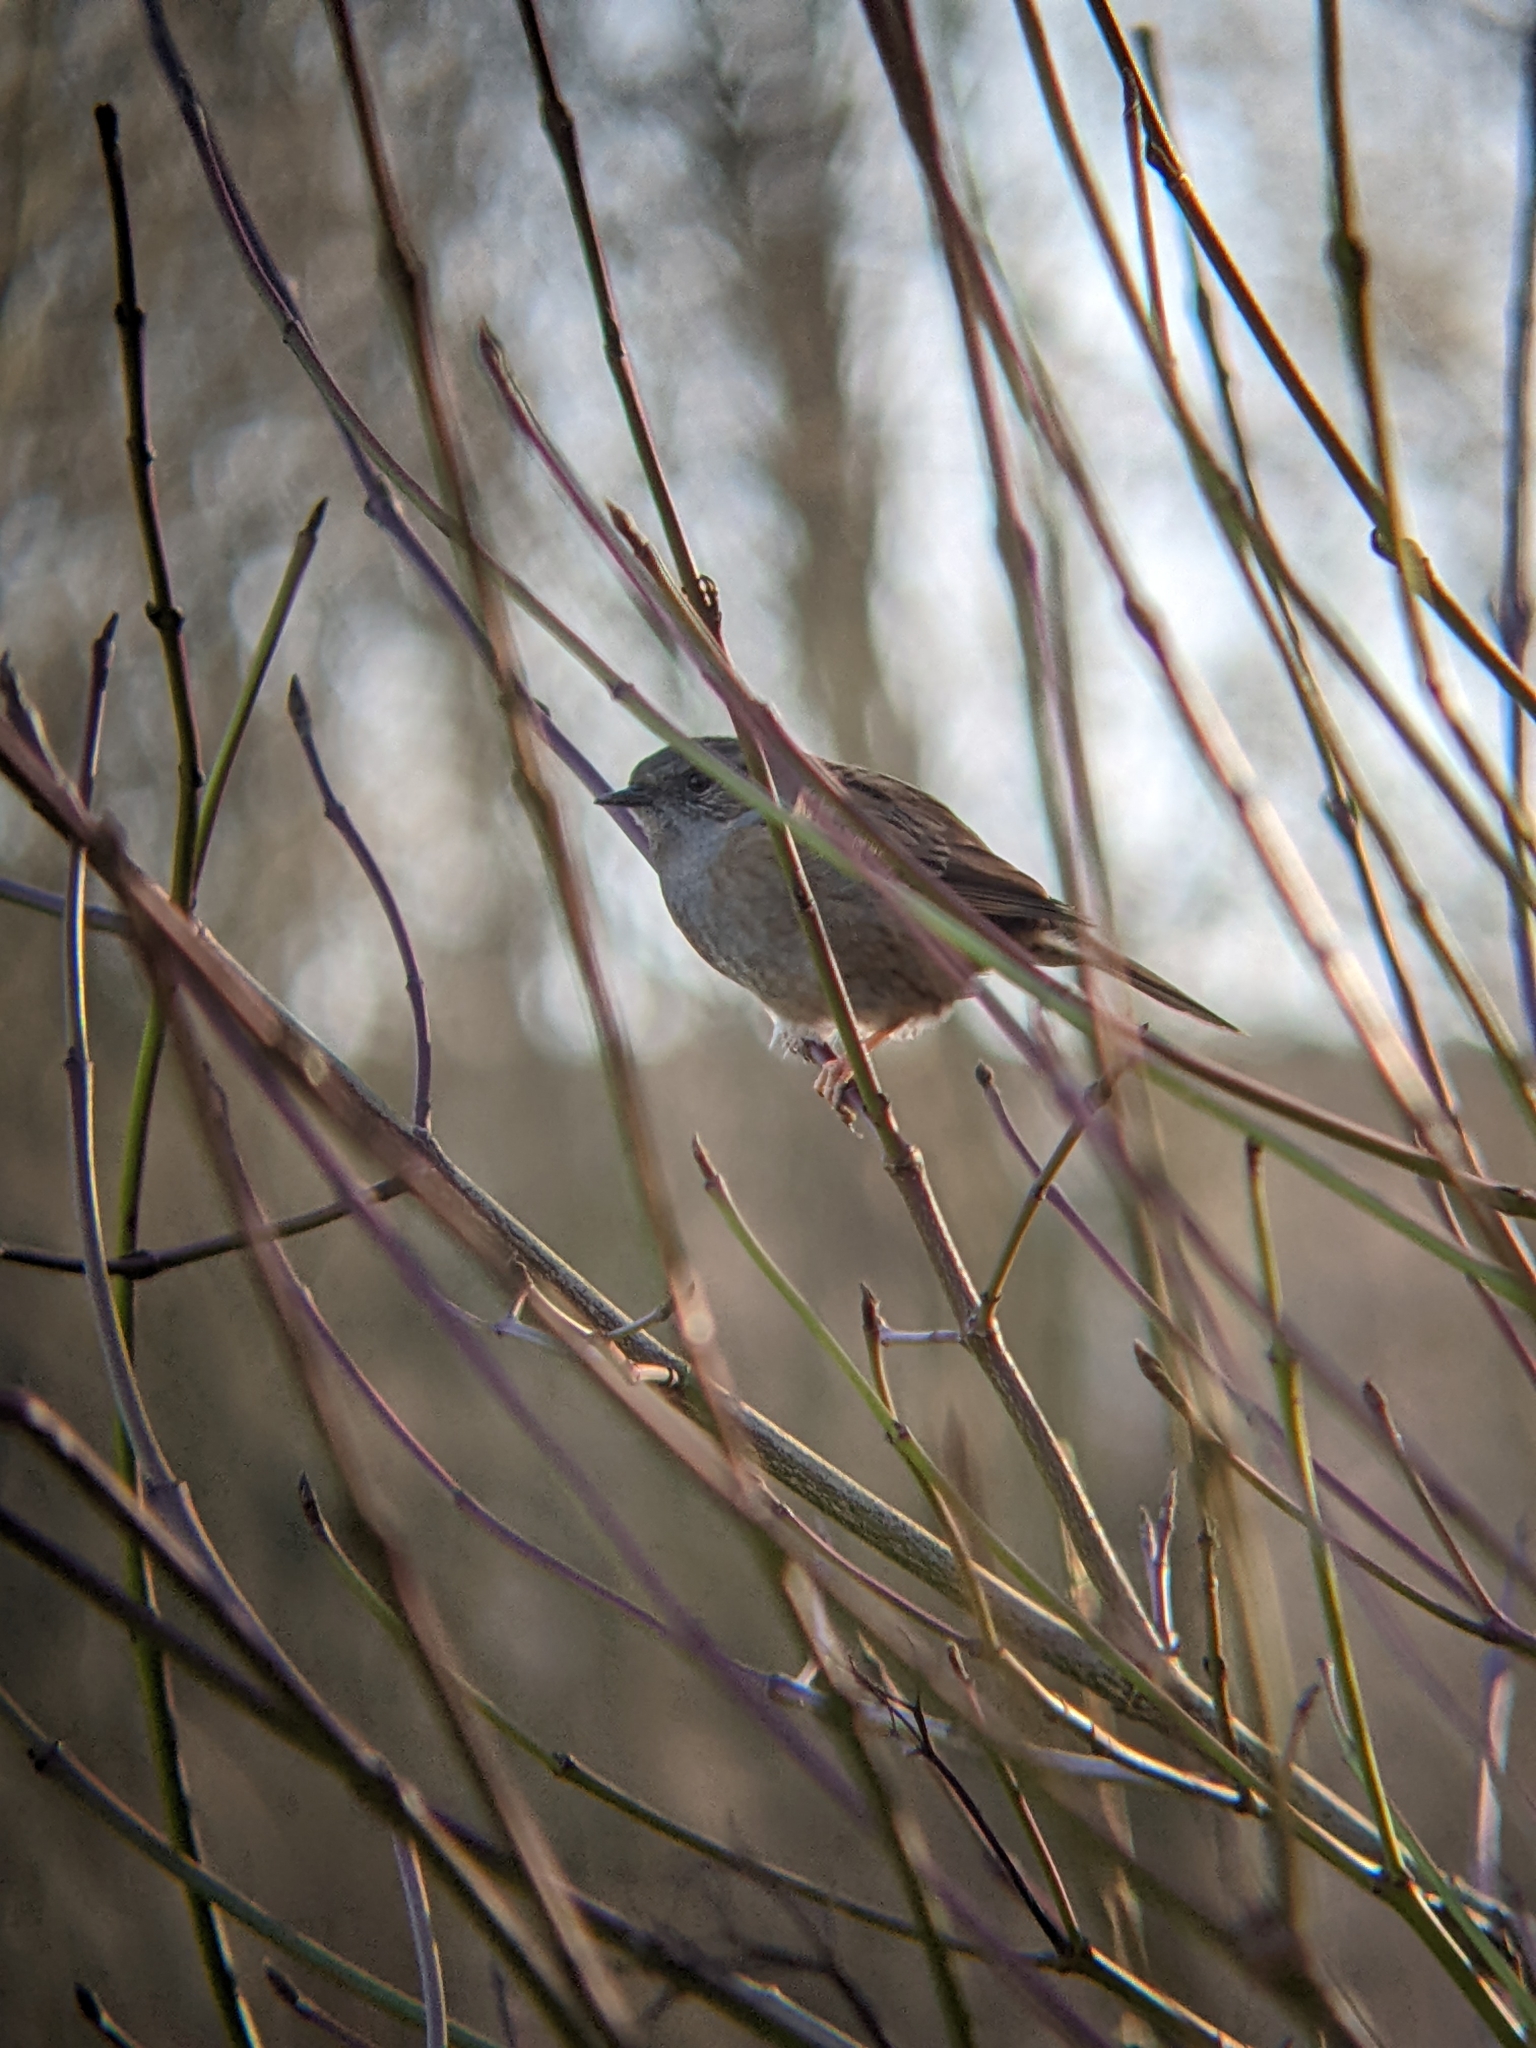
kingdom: Animalia
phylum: Chordata
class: Aves
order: Passeriformes
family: Prunellidae
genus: Prunella
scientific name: Prunella modularis
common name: Dunnock
